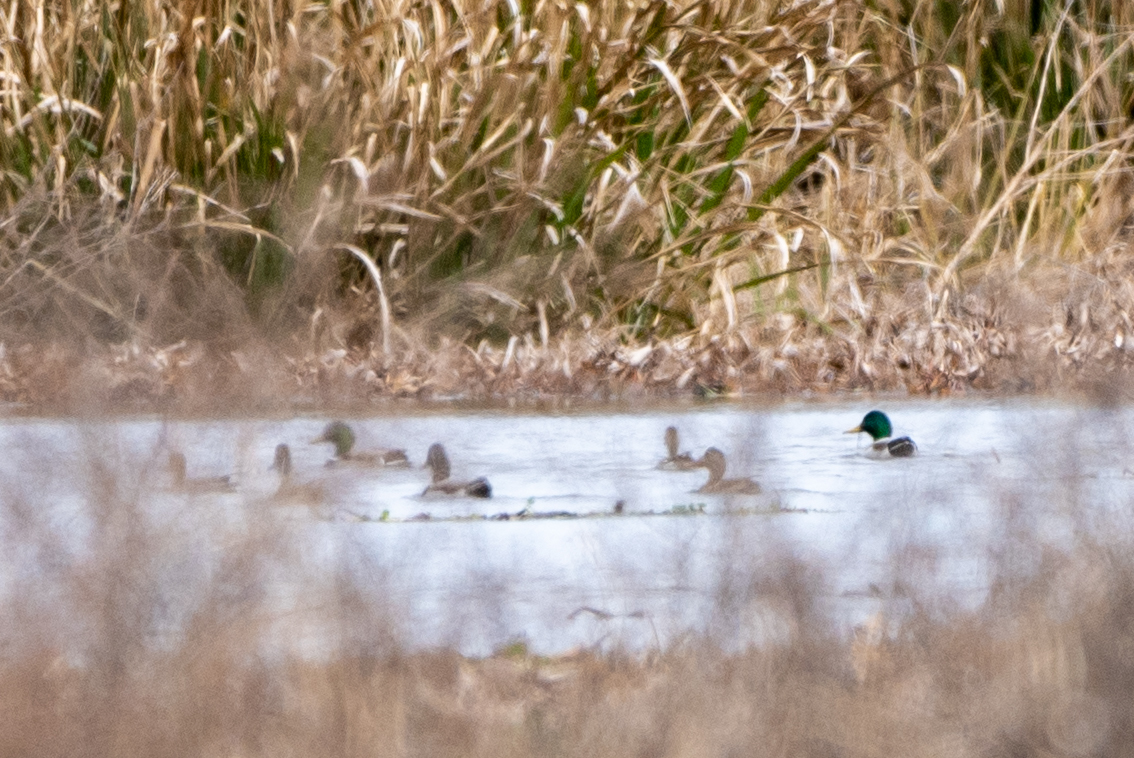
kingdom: Animalia
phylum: Chordata
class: Aves
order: Anseriformes
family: Anatidae
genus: Anas
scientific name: Anas platyrhynchos
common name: Mallard
